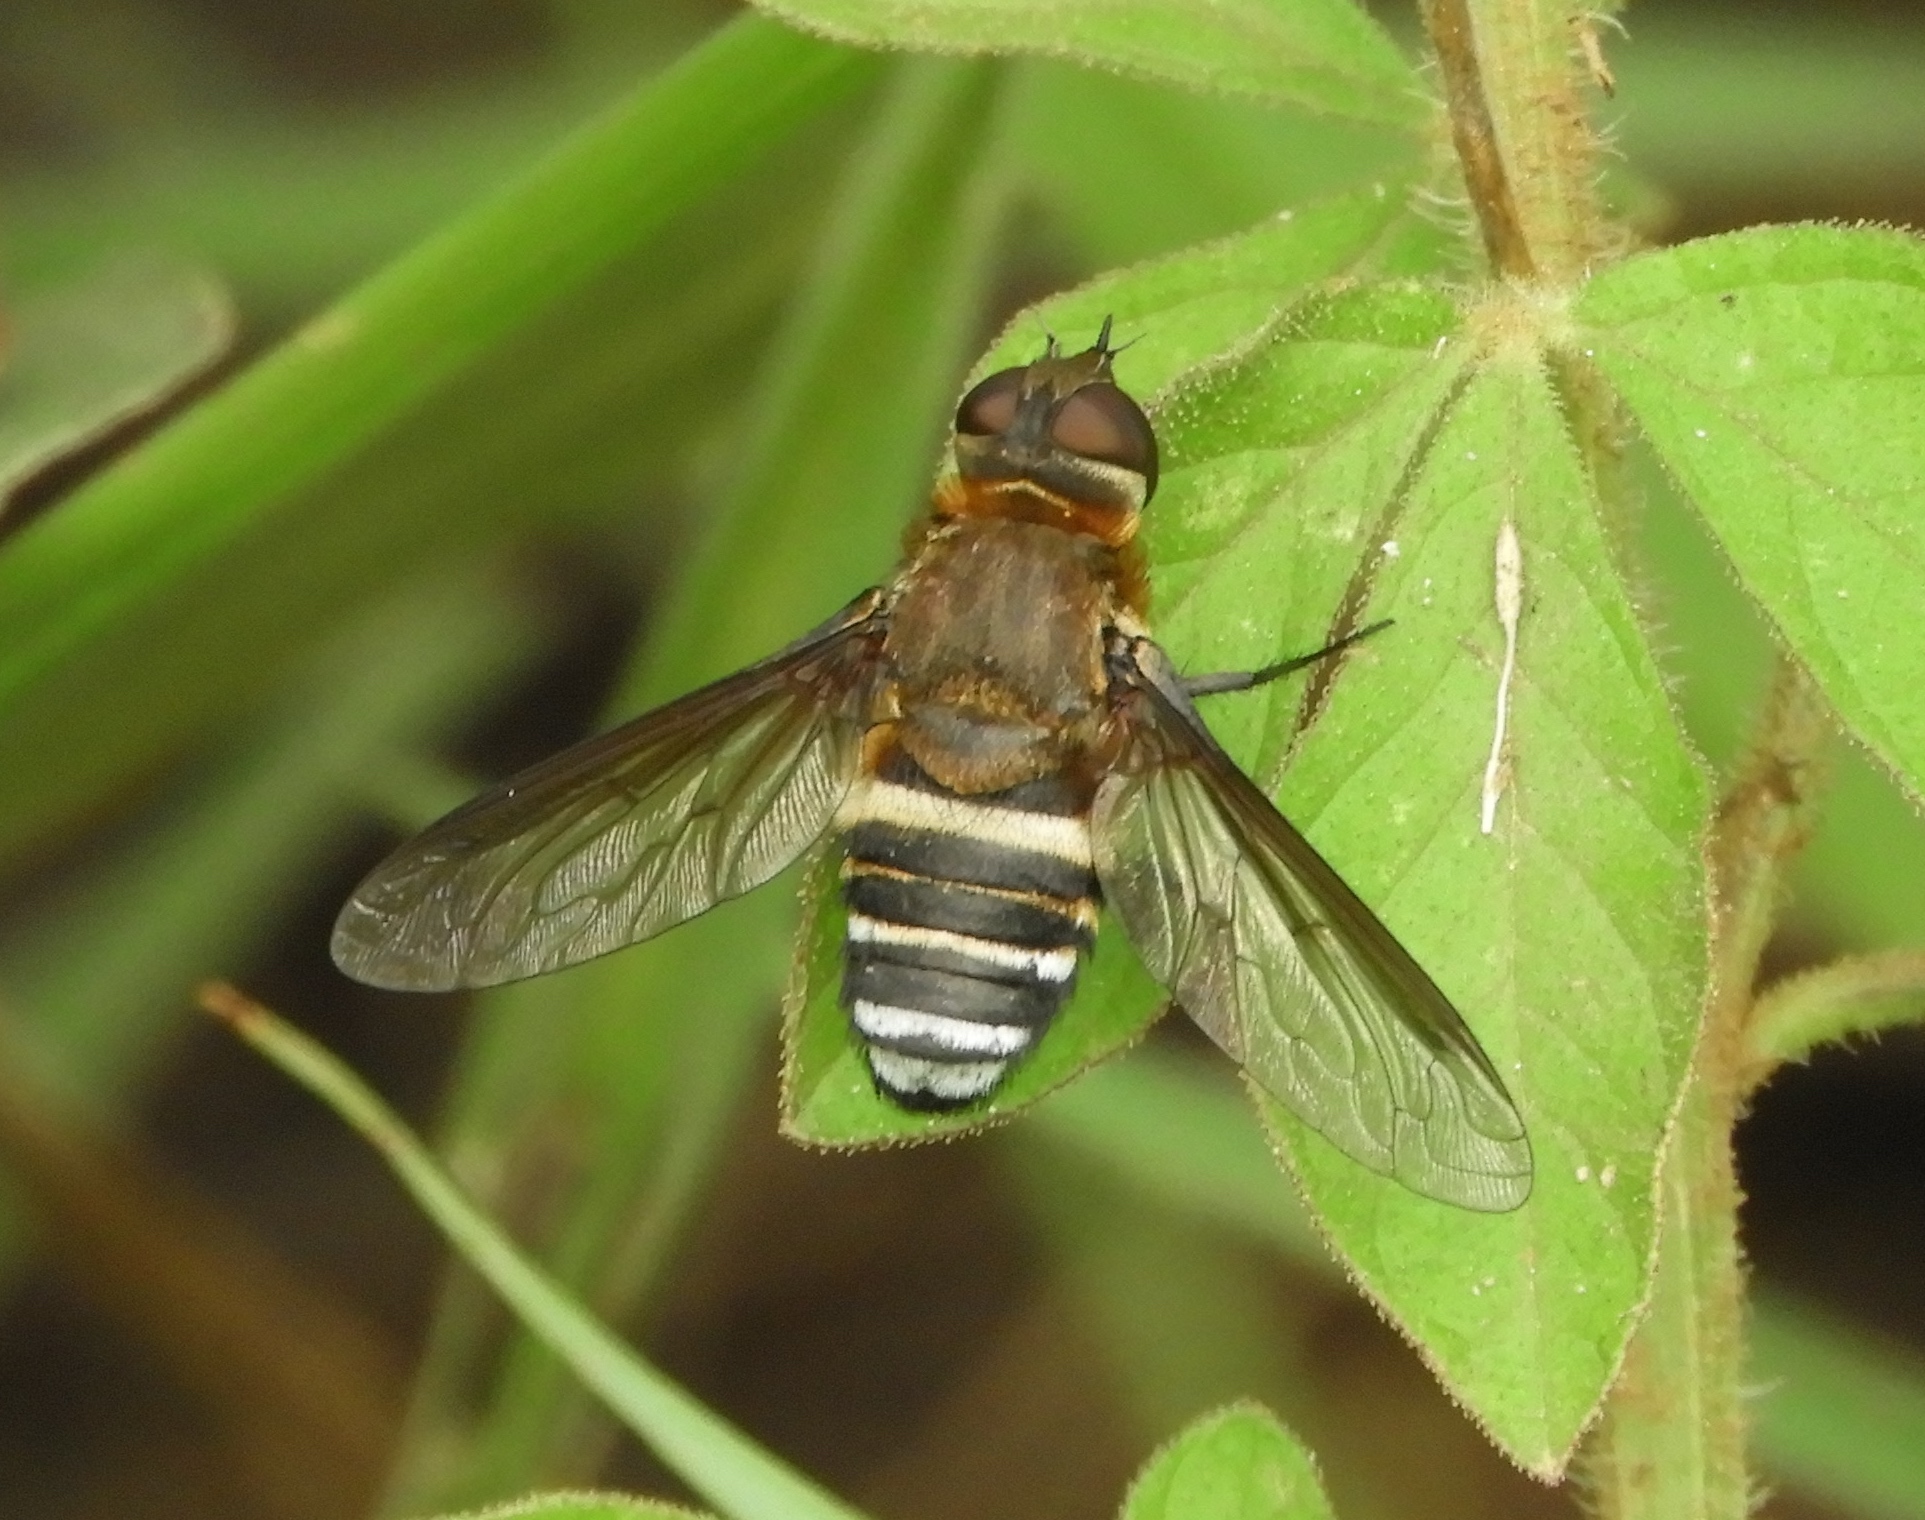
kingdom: Animalia
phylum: Arthropoda
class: Insecta
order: Diptera
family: Bombyliidae
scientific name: Bombyliidae
